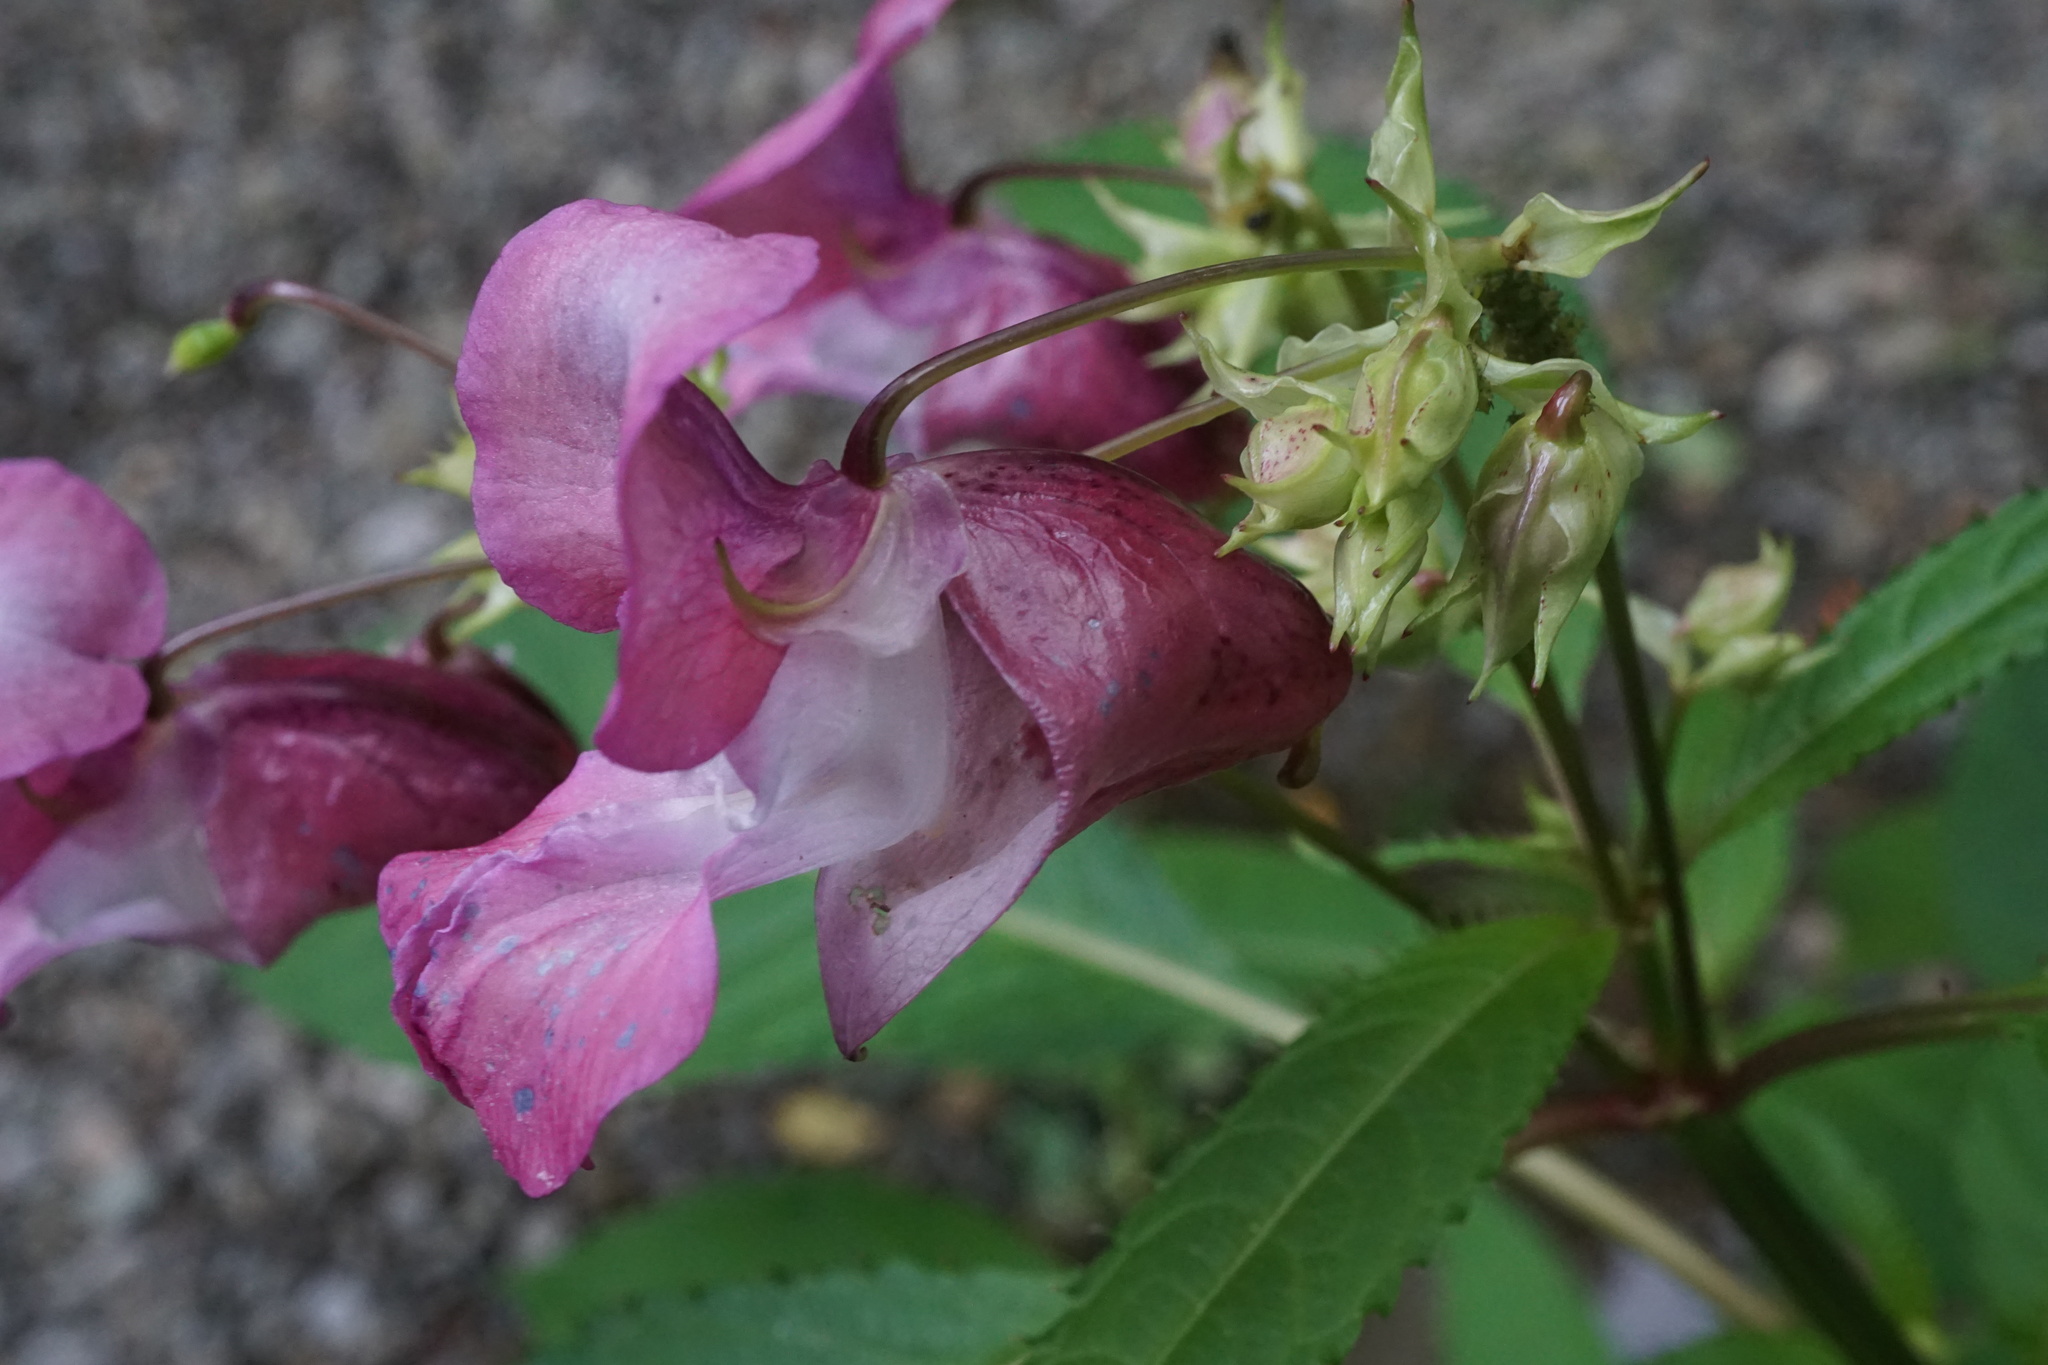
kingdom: Plantae
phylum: Tracheophyta
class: Magnoliopsida
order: Ericales
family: Balsaminaceae
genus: Impatiens
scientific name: Impatiens glandulifera
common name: Himalayan balsam
